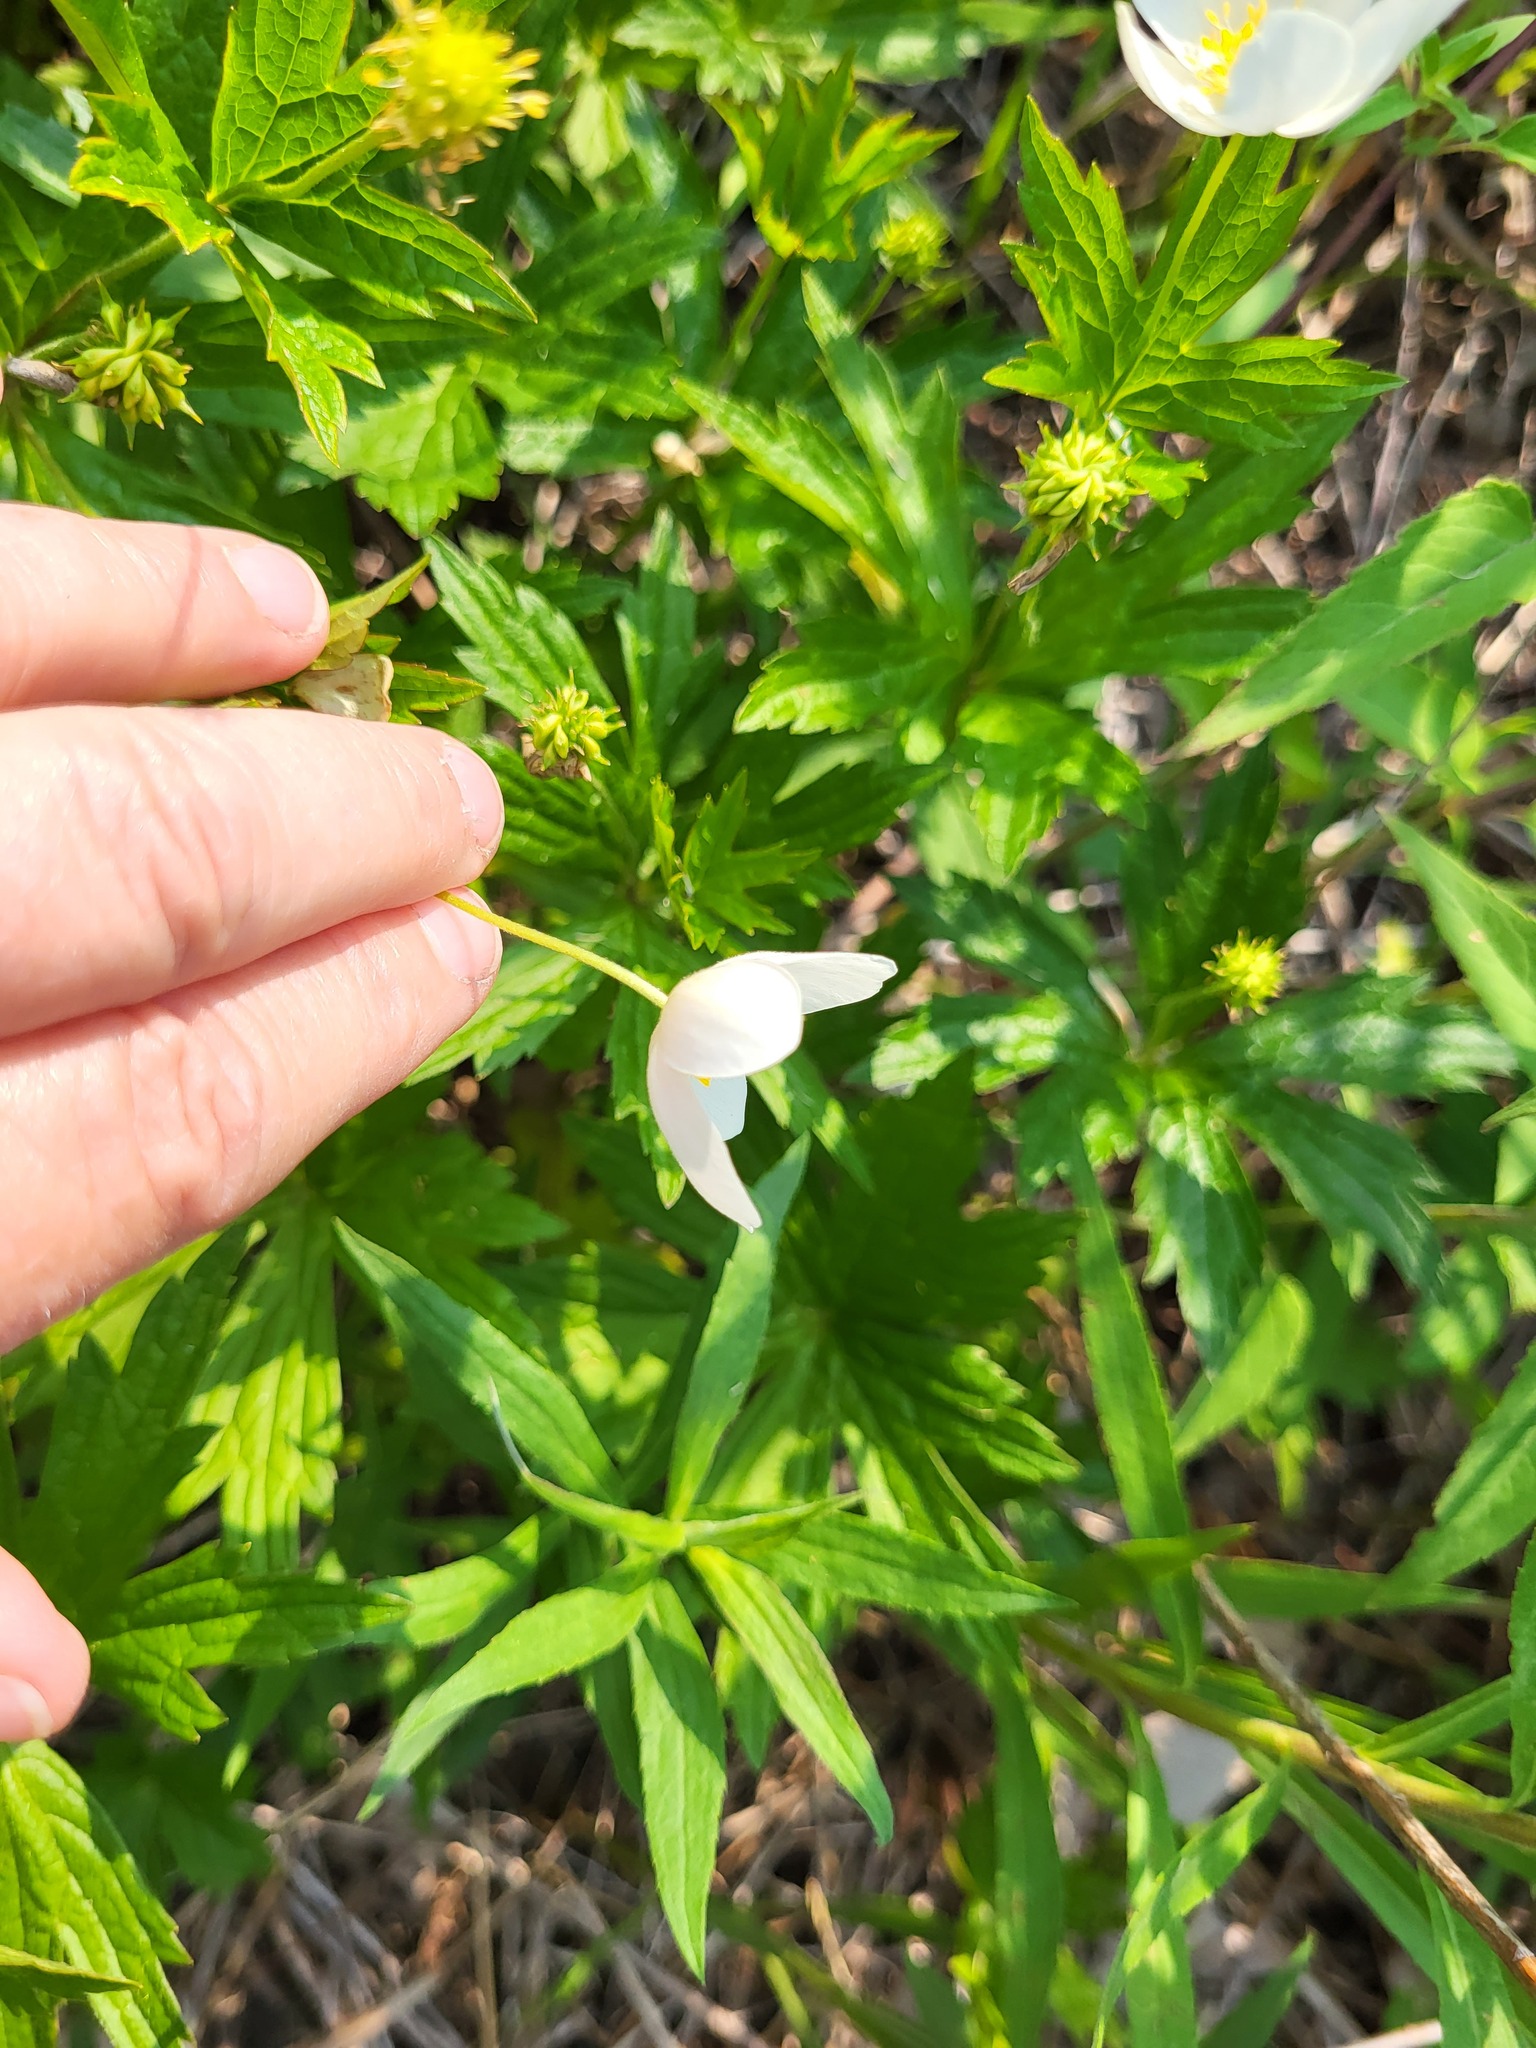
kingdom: Plantae
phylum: Tracheophyta
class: Magnoliopsida
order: Ranunculales
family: Ranunculaceae
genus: Anemonastrum
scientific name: Anemonastrum canadense
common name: Canada anemone
